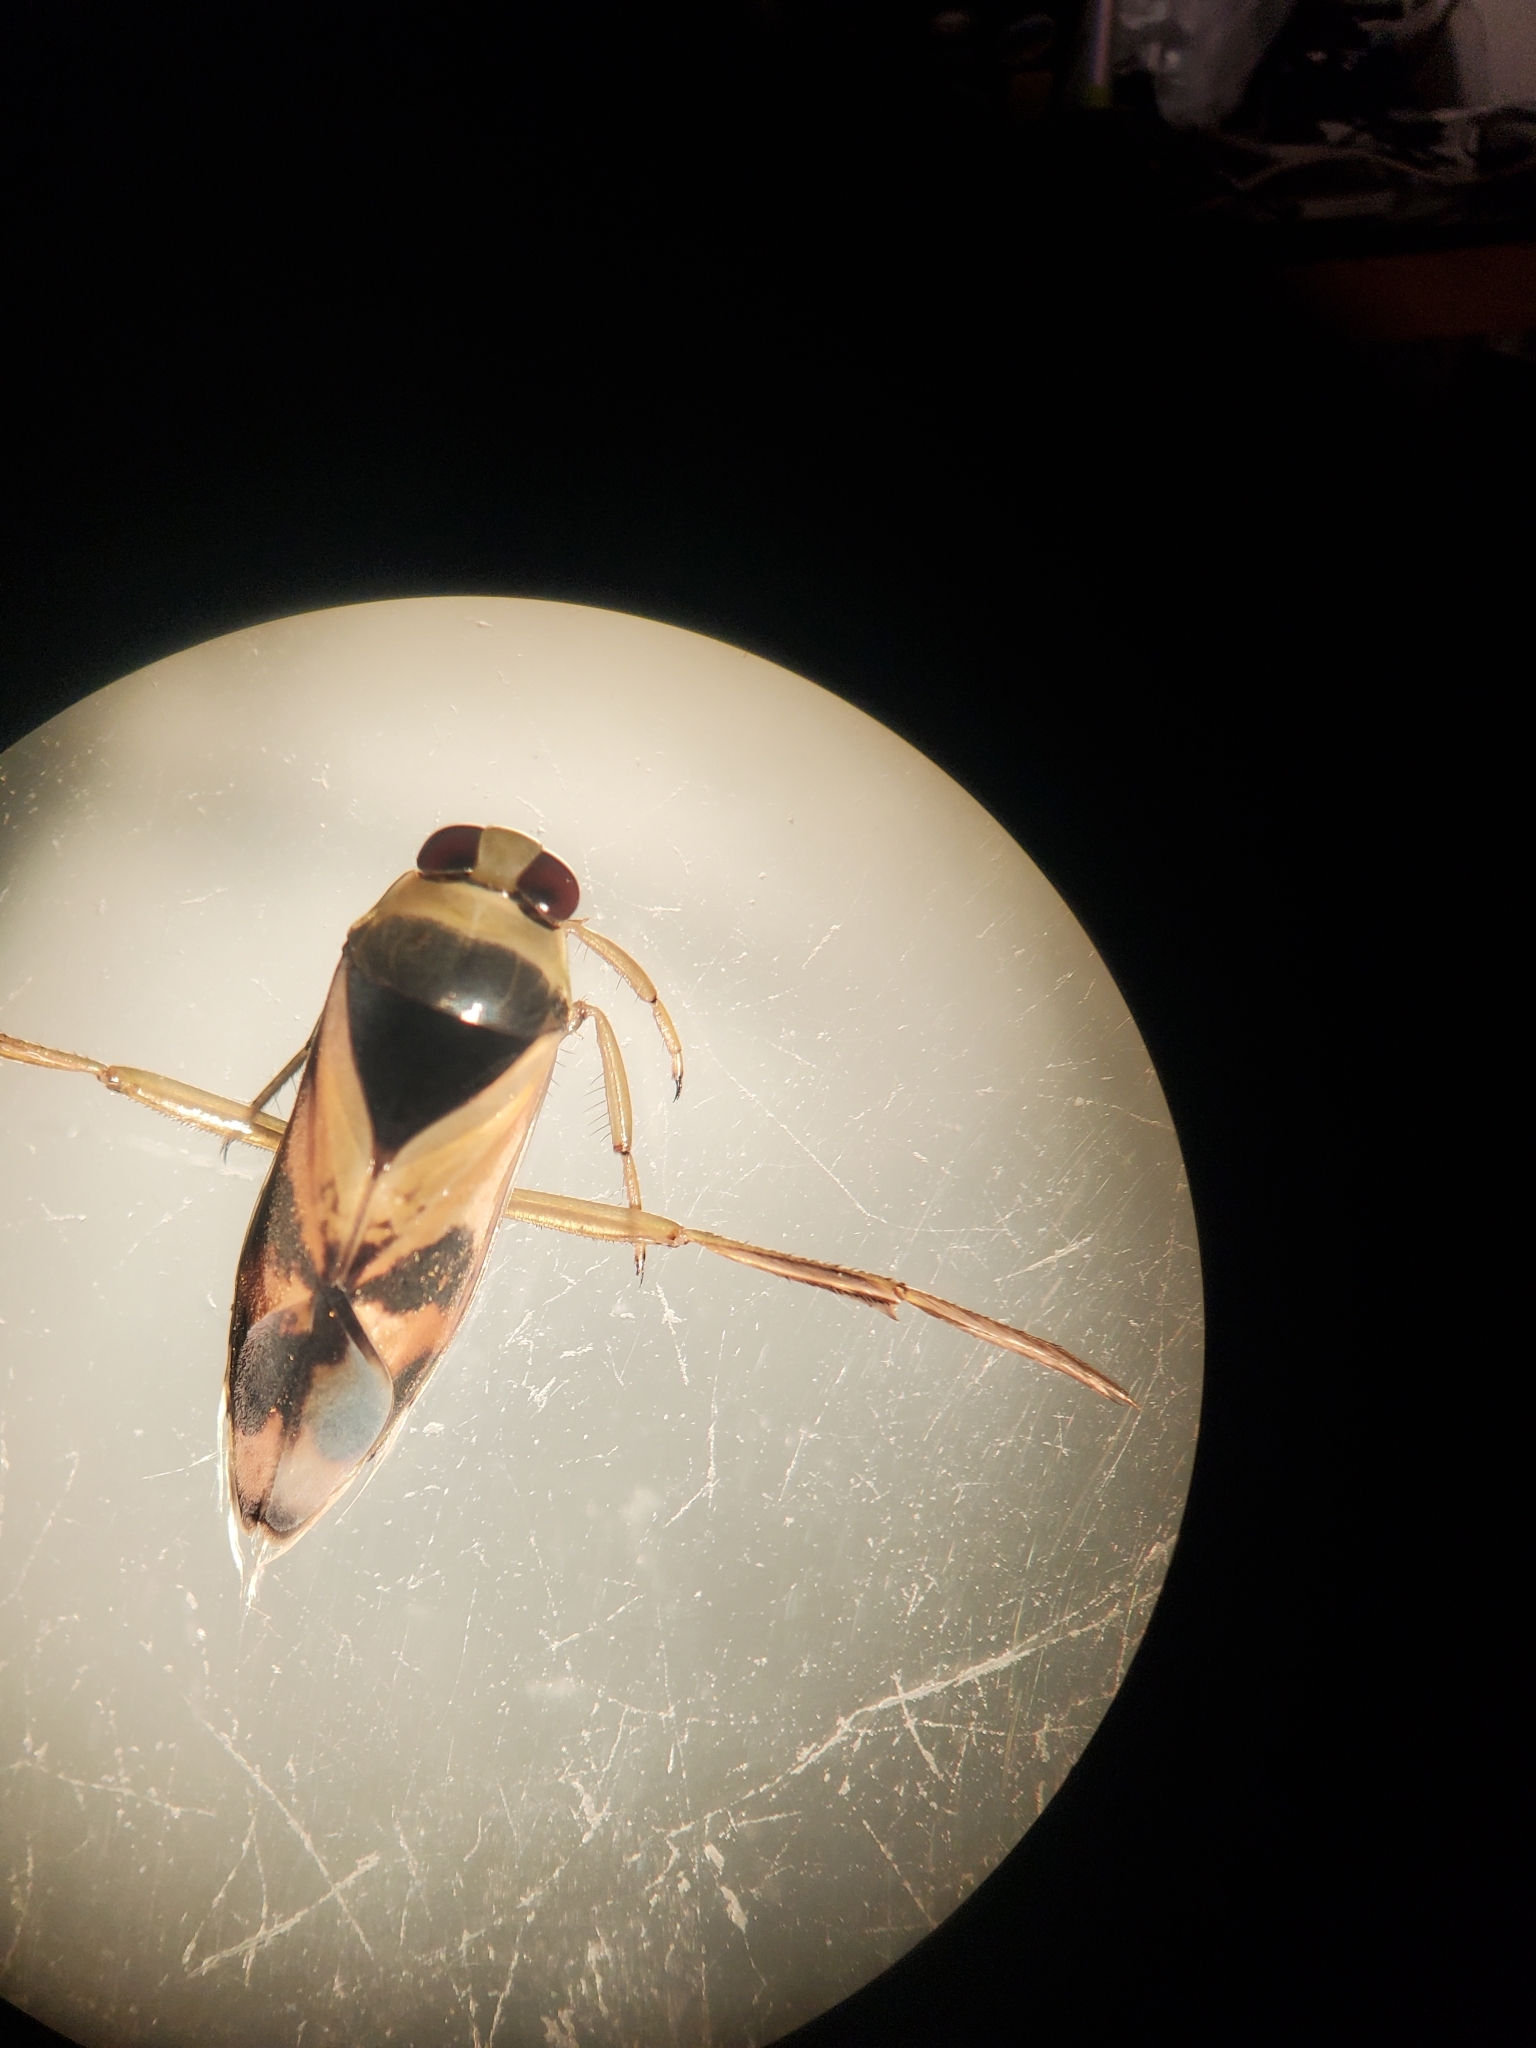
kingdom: Animalia
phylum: Arthropoda
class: Insecta
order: Hemiptera
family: Notonectidae
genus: Notonecta
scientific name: Notonecta kirbyi
